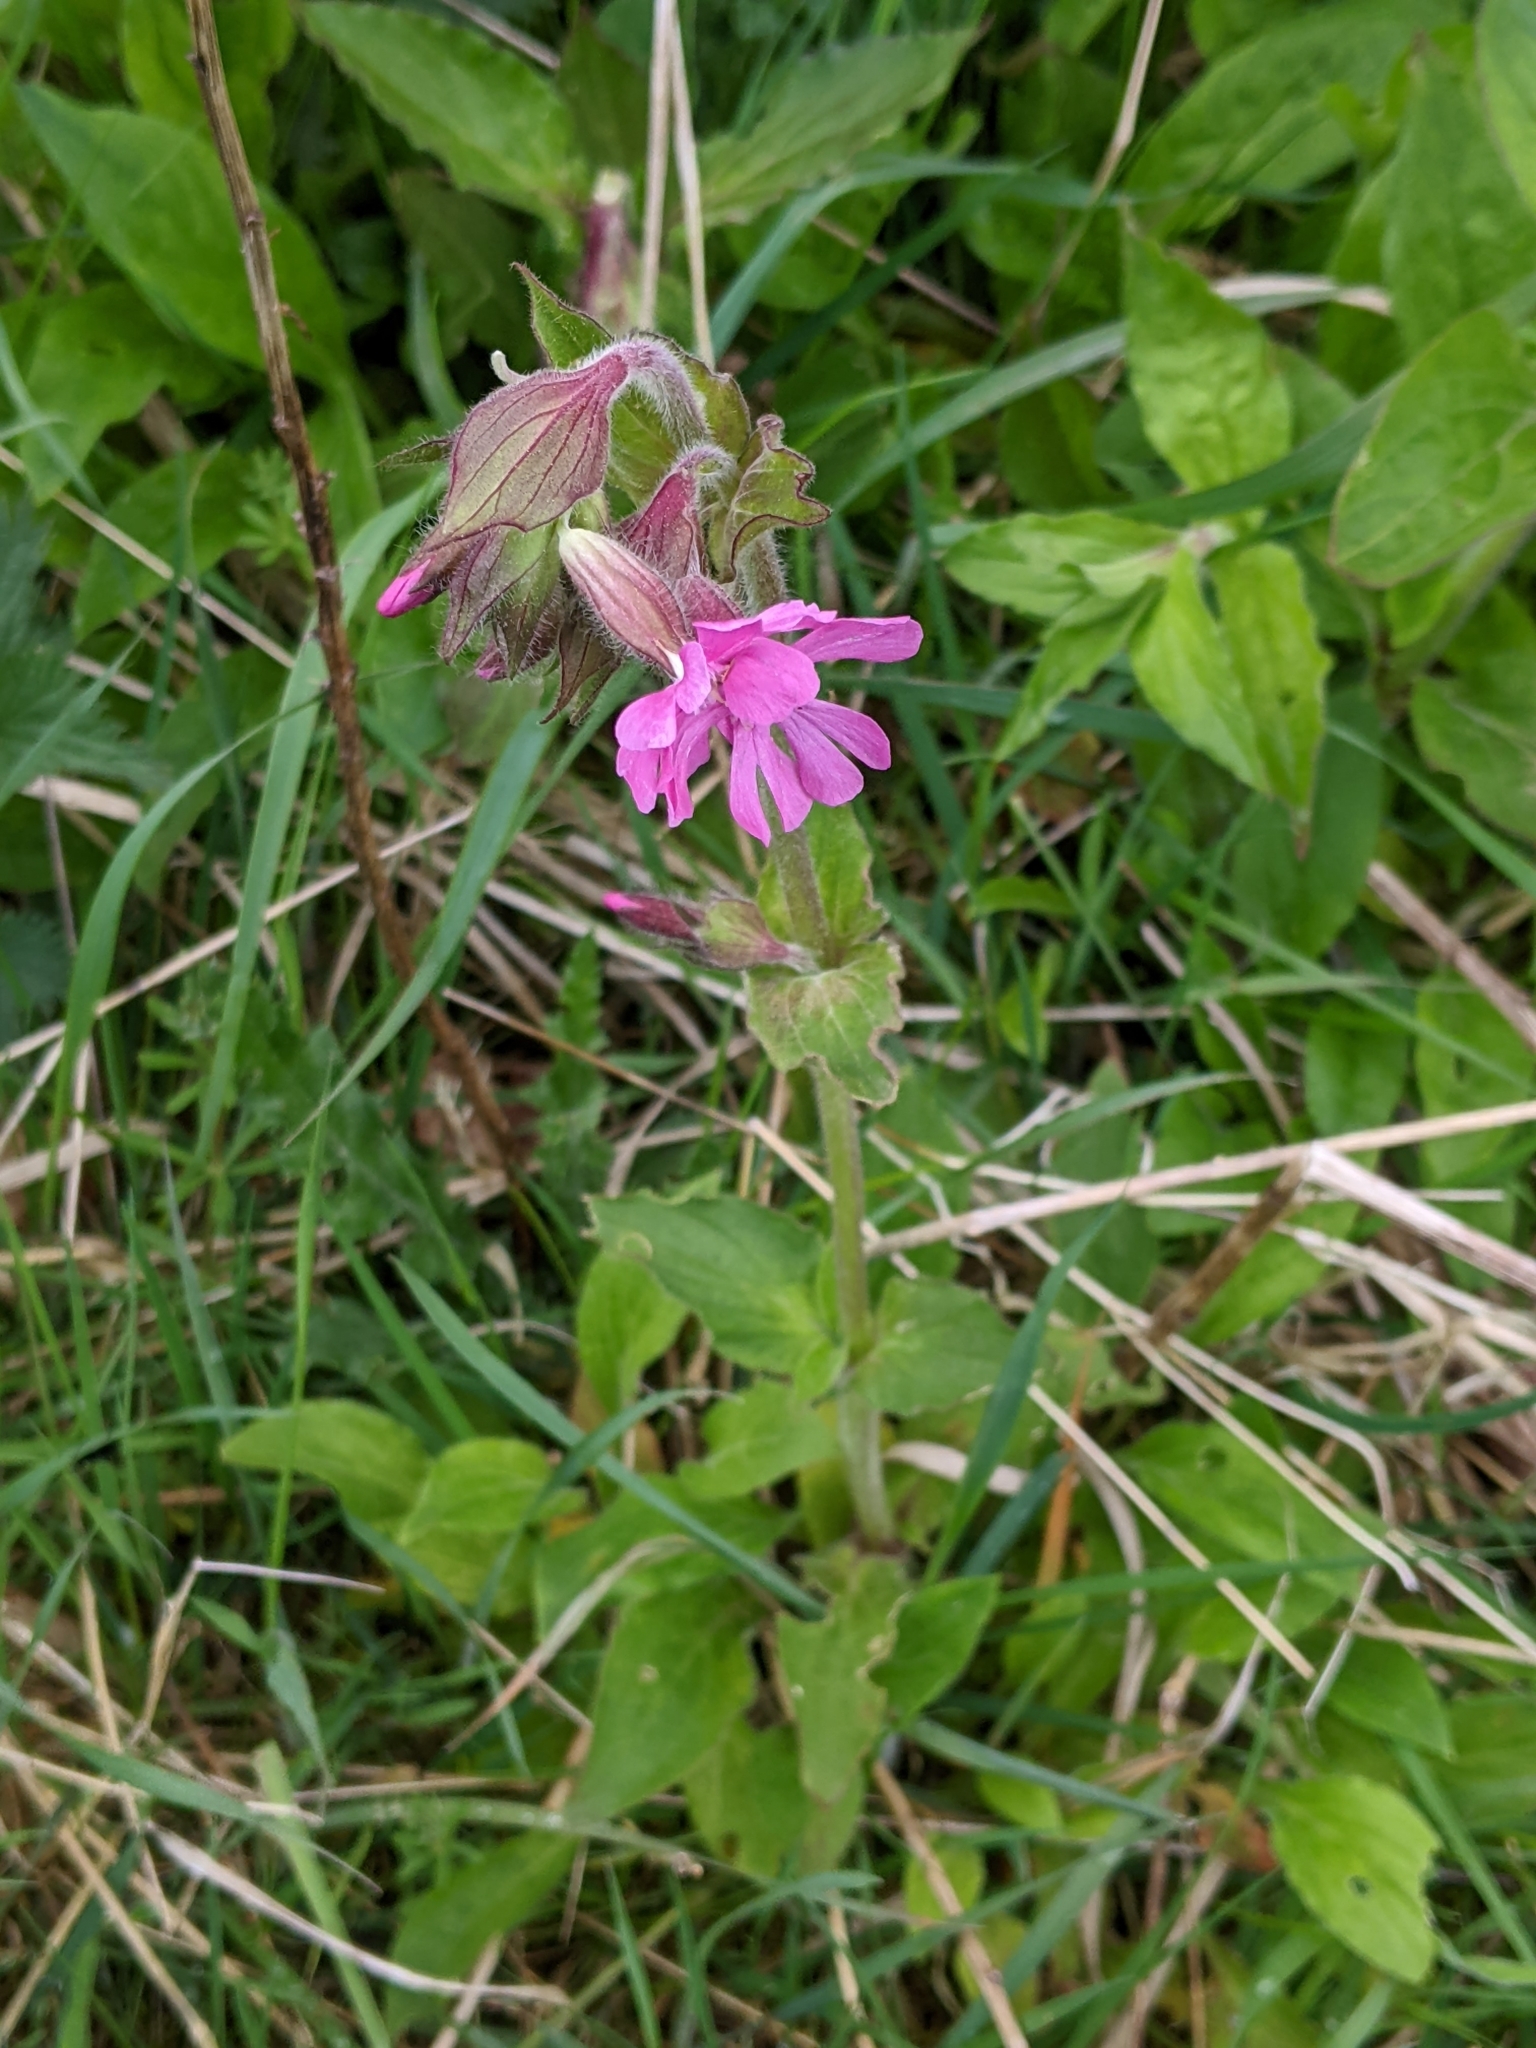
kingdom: Plantae
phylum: Tracheophyta
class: Magnoliopsida
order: Caryophyllales
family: Caryophyllaceae
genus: Silene
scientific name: Silene dioica
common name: Red campion
